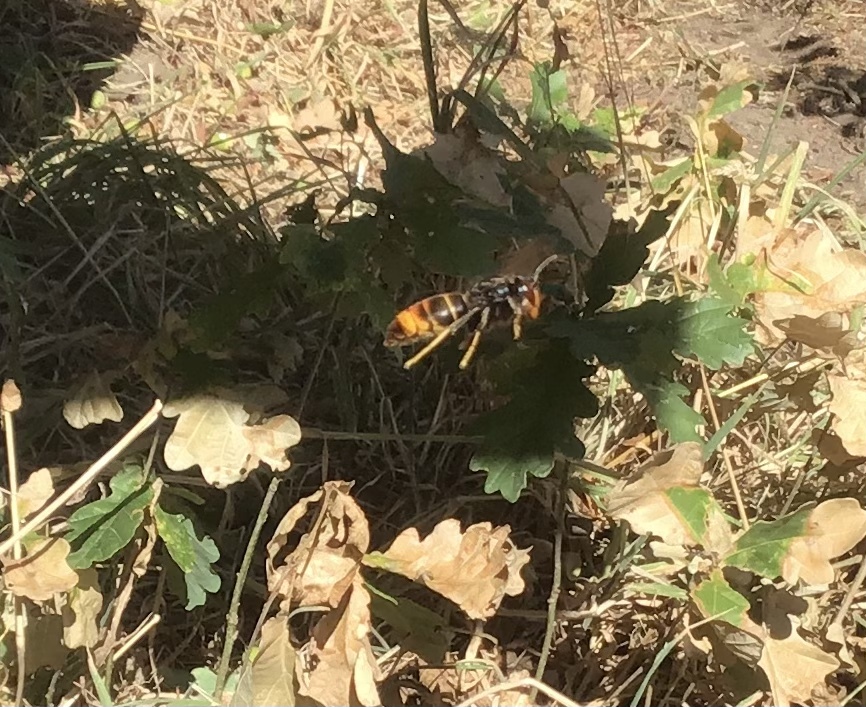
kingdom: Animalia
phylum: Arthropoda
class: Insecta
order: Hymenoptera
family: Vespidae
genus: Vespa
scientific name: Vespa velutina
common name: Asian hornet
